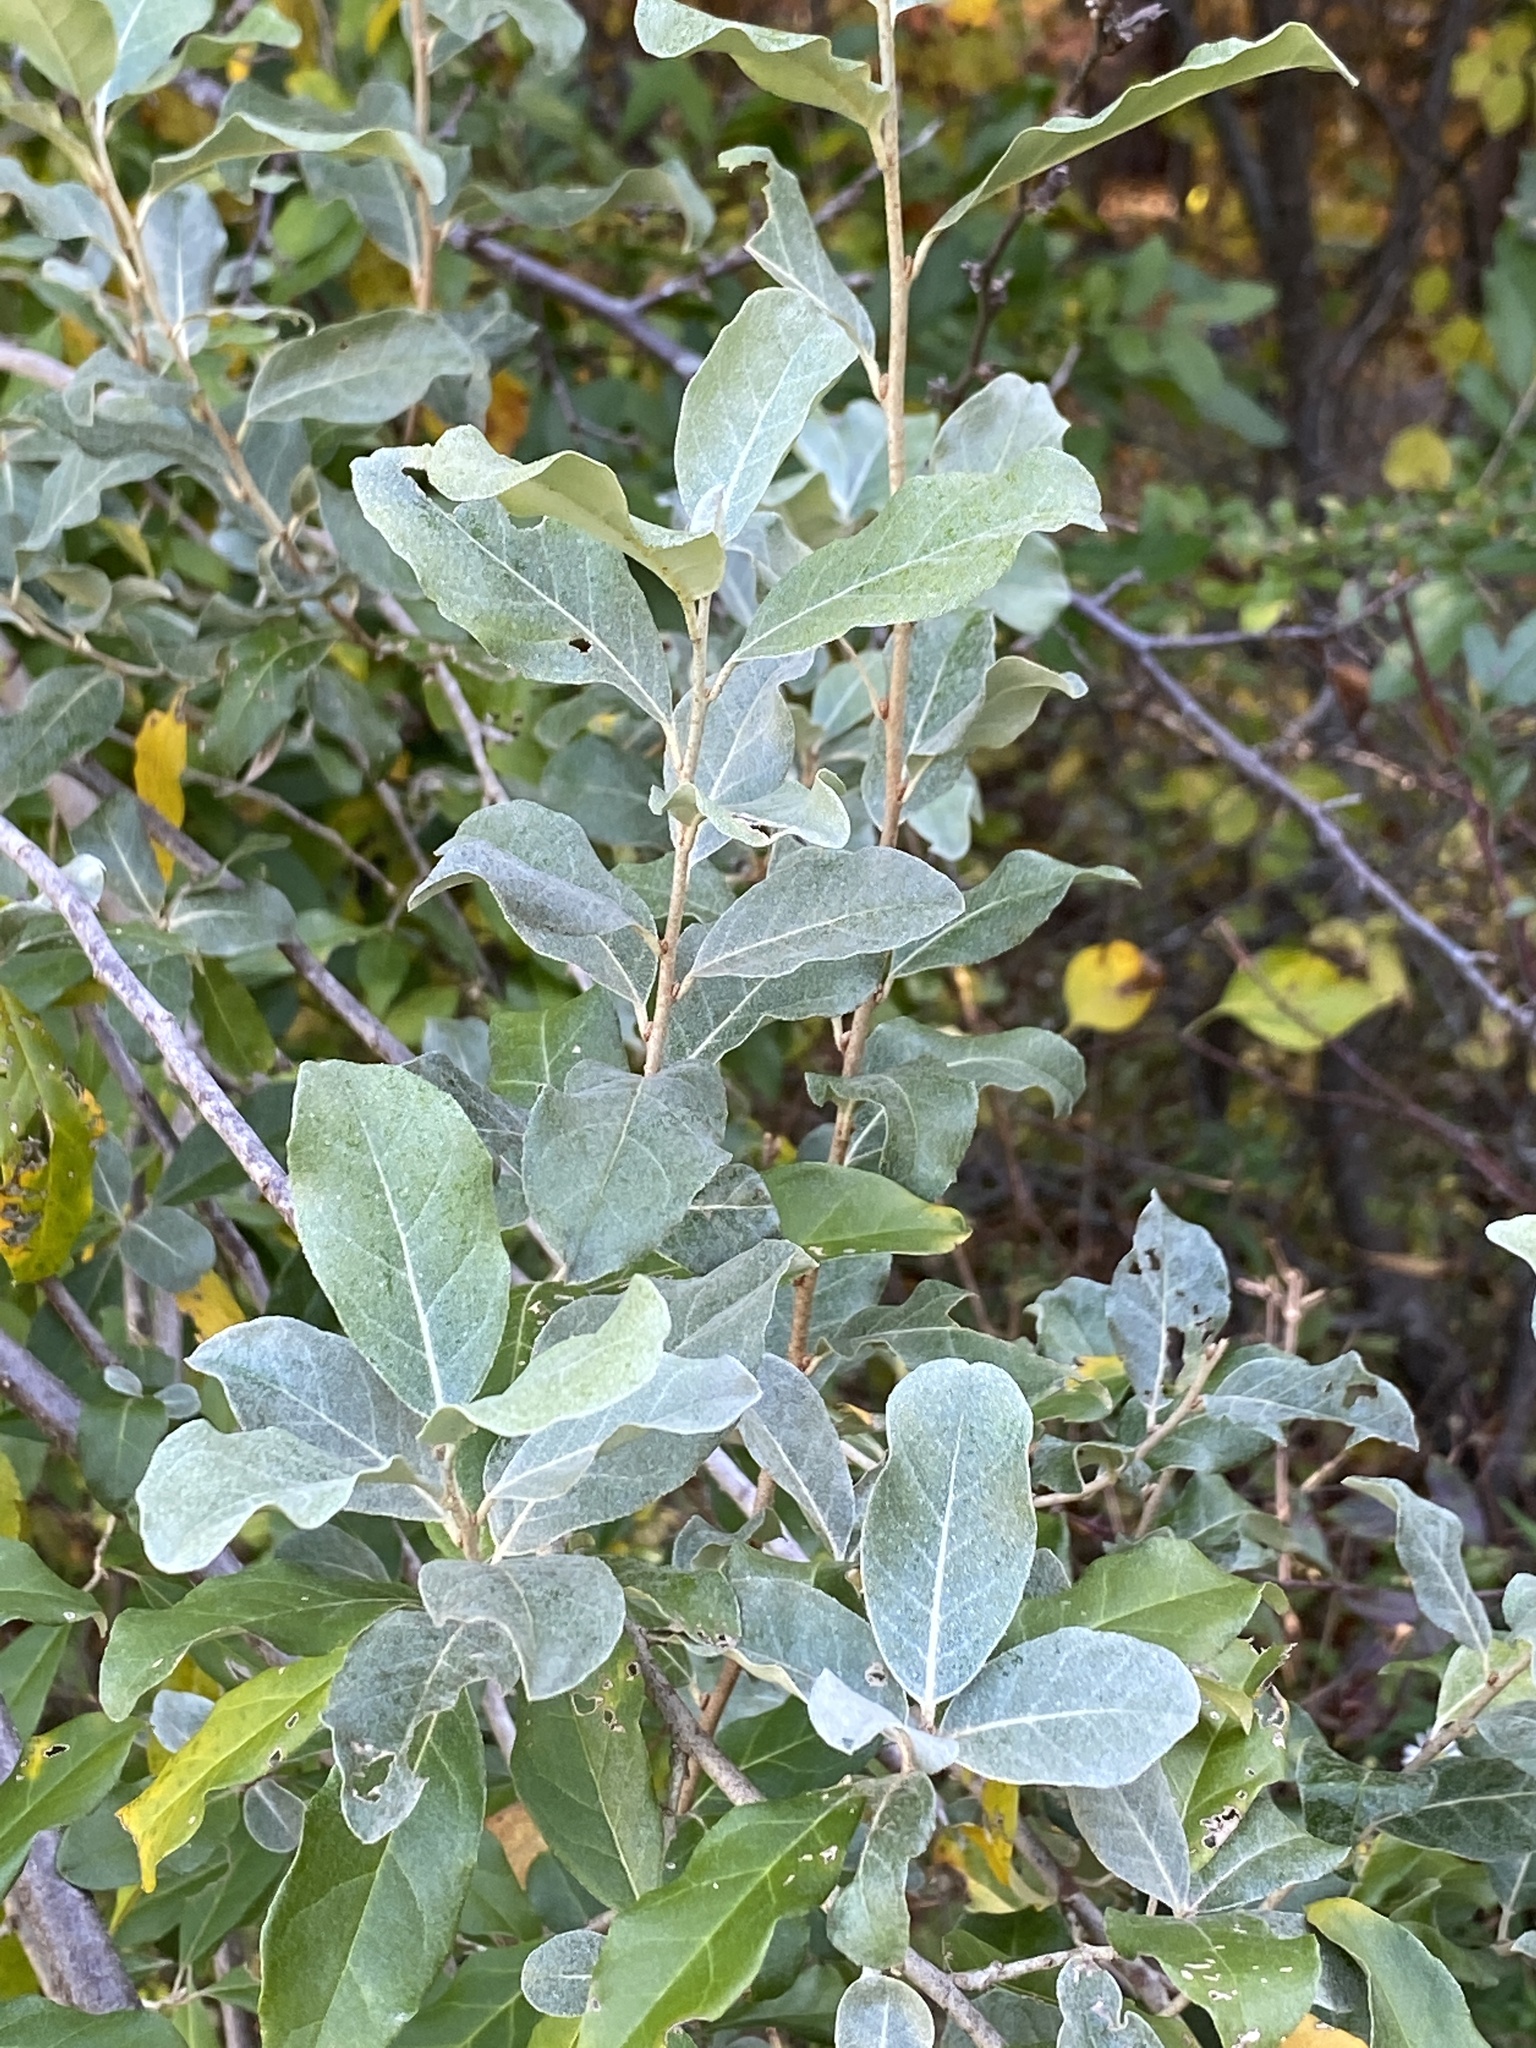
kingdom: Plantae
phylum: Tracheophyta
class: Magnoliopsida
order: Rosales
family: Elaeagnaceae
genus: Elaeagnus
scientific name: Elaeagnus umbellata
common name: Autumn olive
